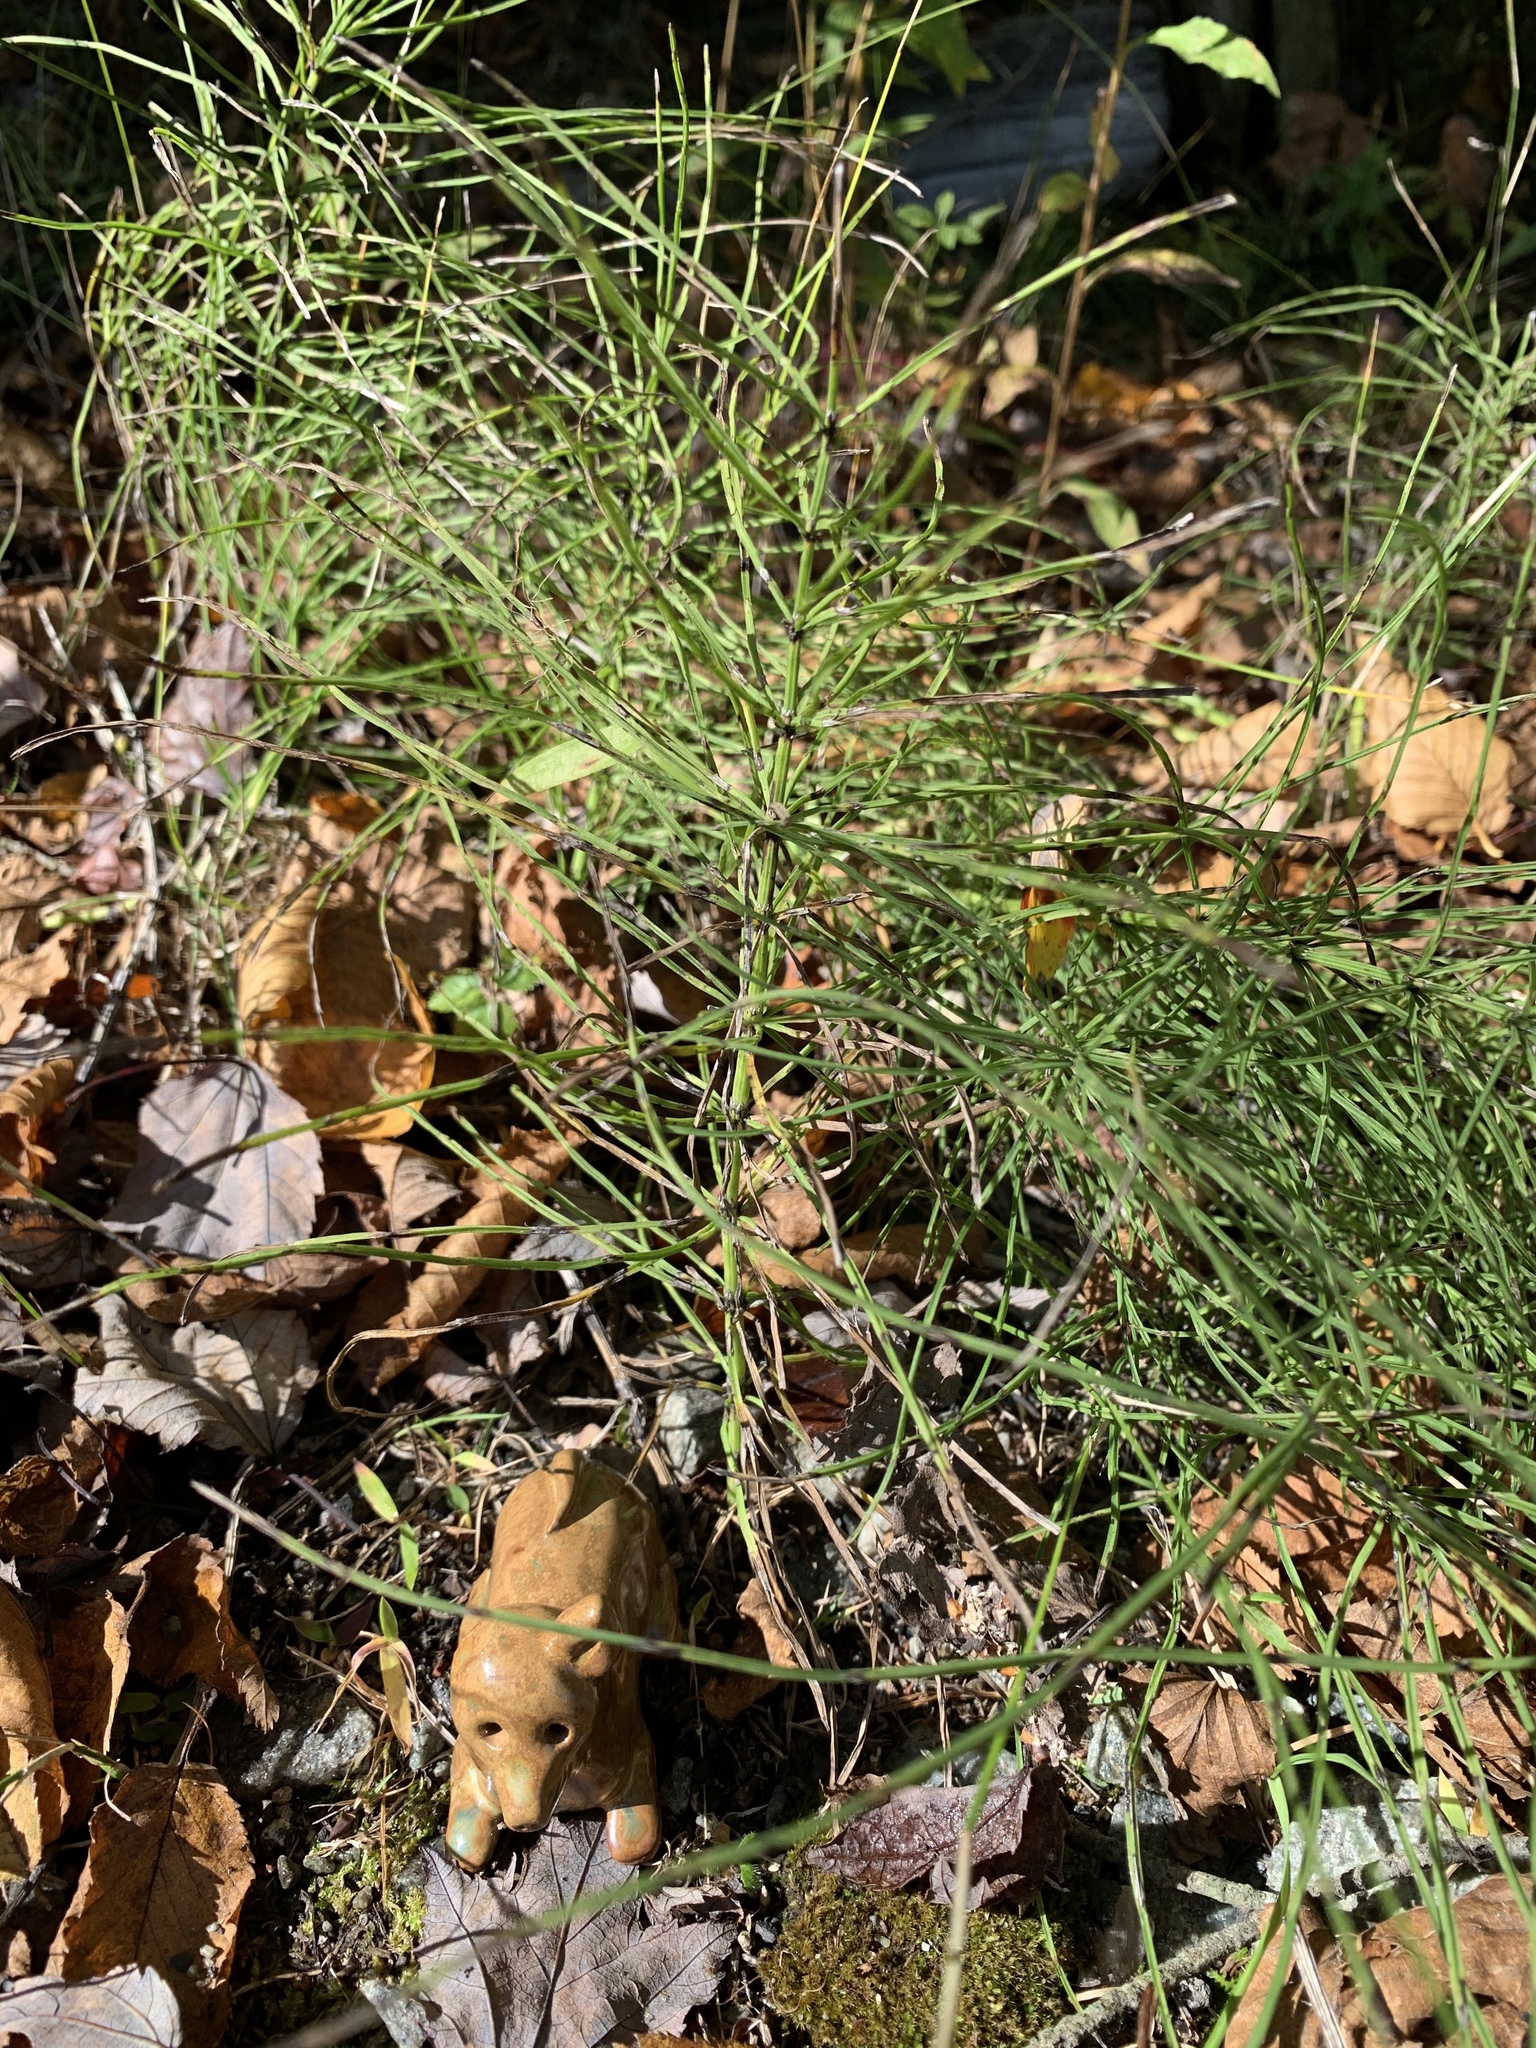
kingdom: Plantae
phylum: Tracheophyta
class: Polypodiopsida
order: Equisetales
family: Equisetaceae
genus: Equisetum
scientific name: Equisetum arvense
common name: Field horsetail
